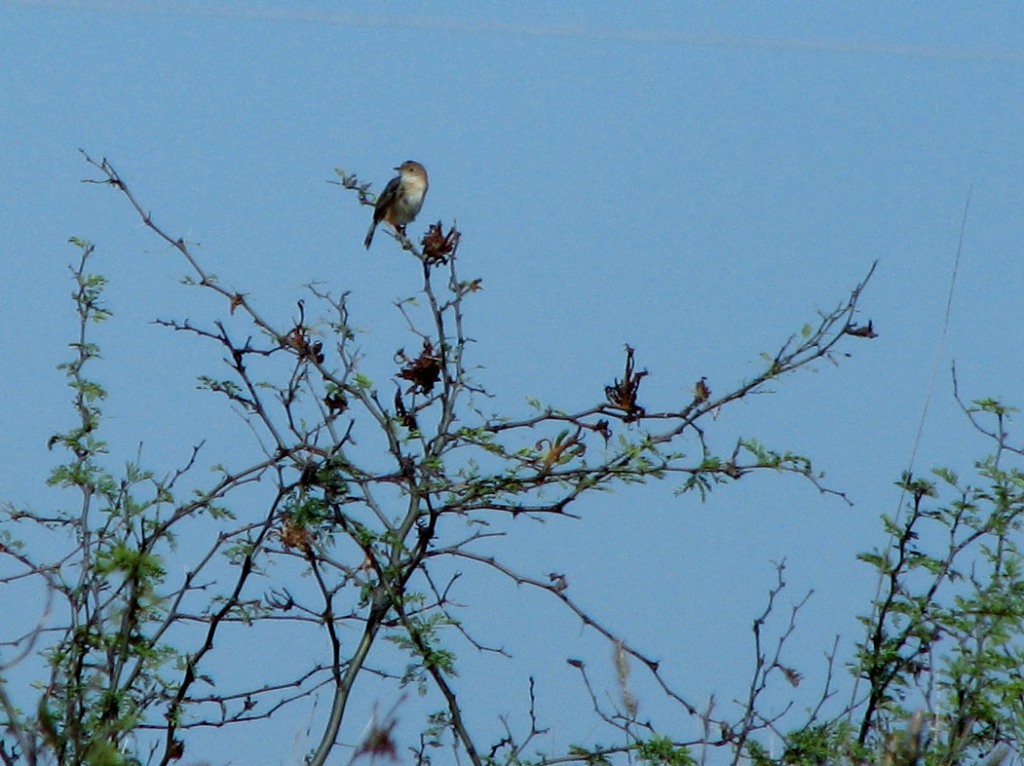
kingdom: Animalia
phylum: Chordata
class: Aves
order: Passeriformes
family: Cisticolidae
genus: Cisticola
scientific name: Cisticola exilis
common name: Golden-headed cisticola
